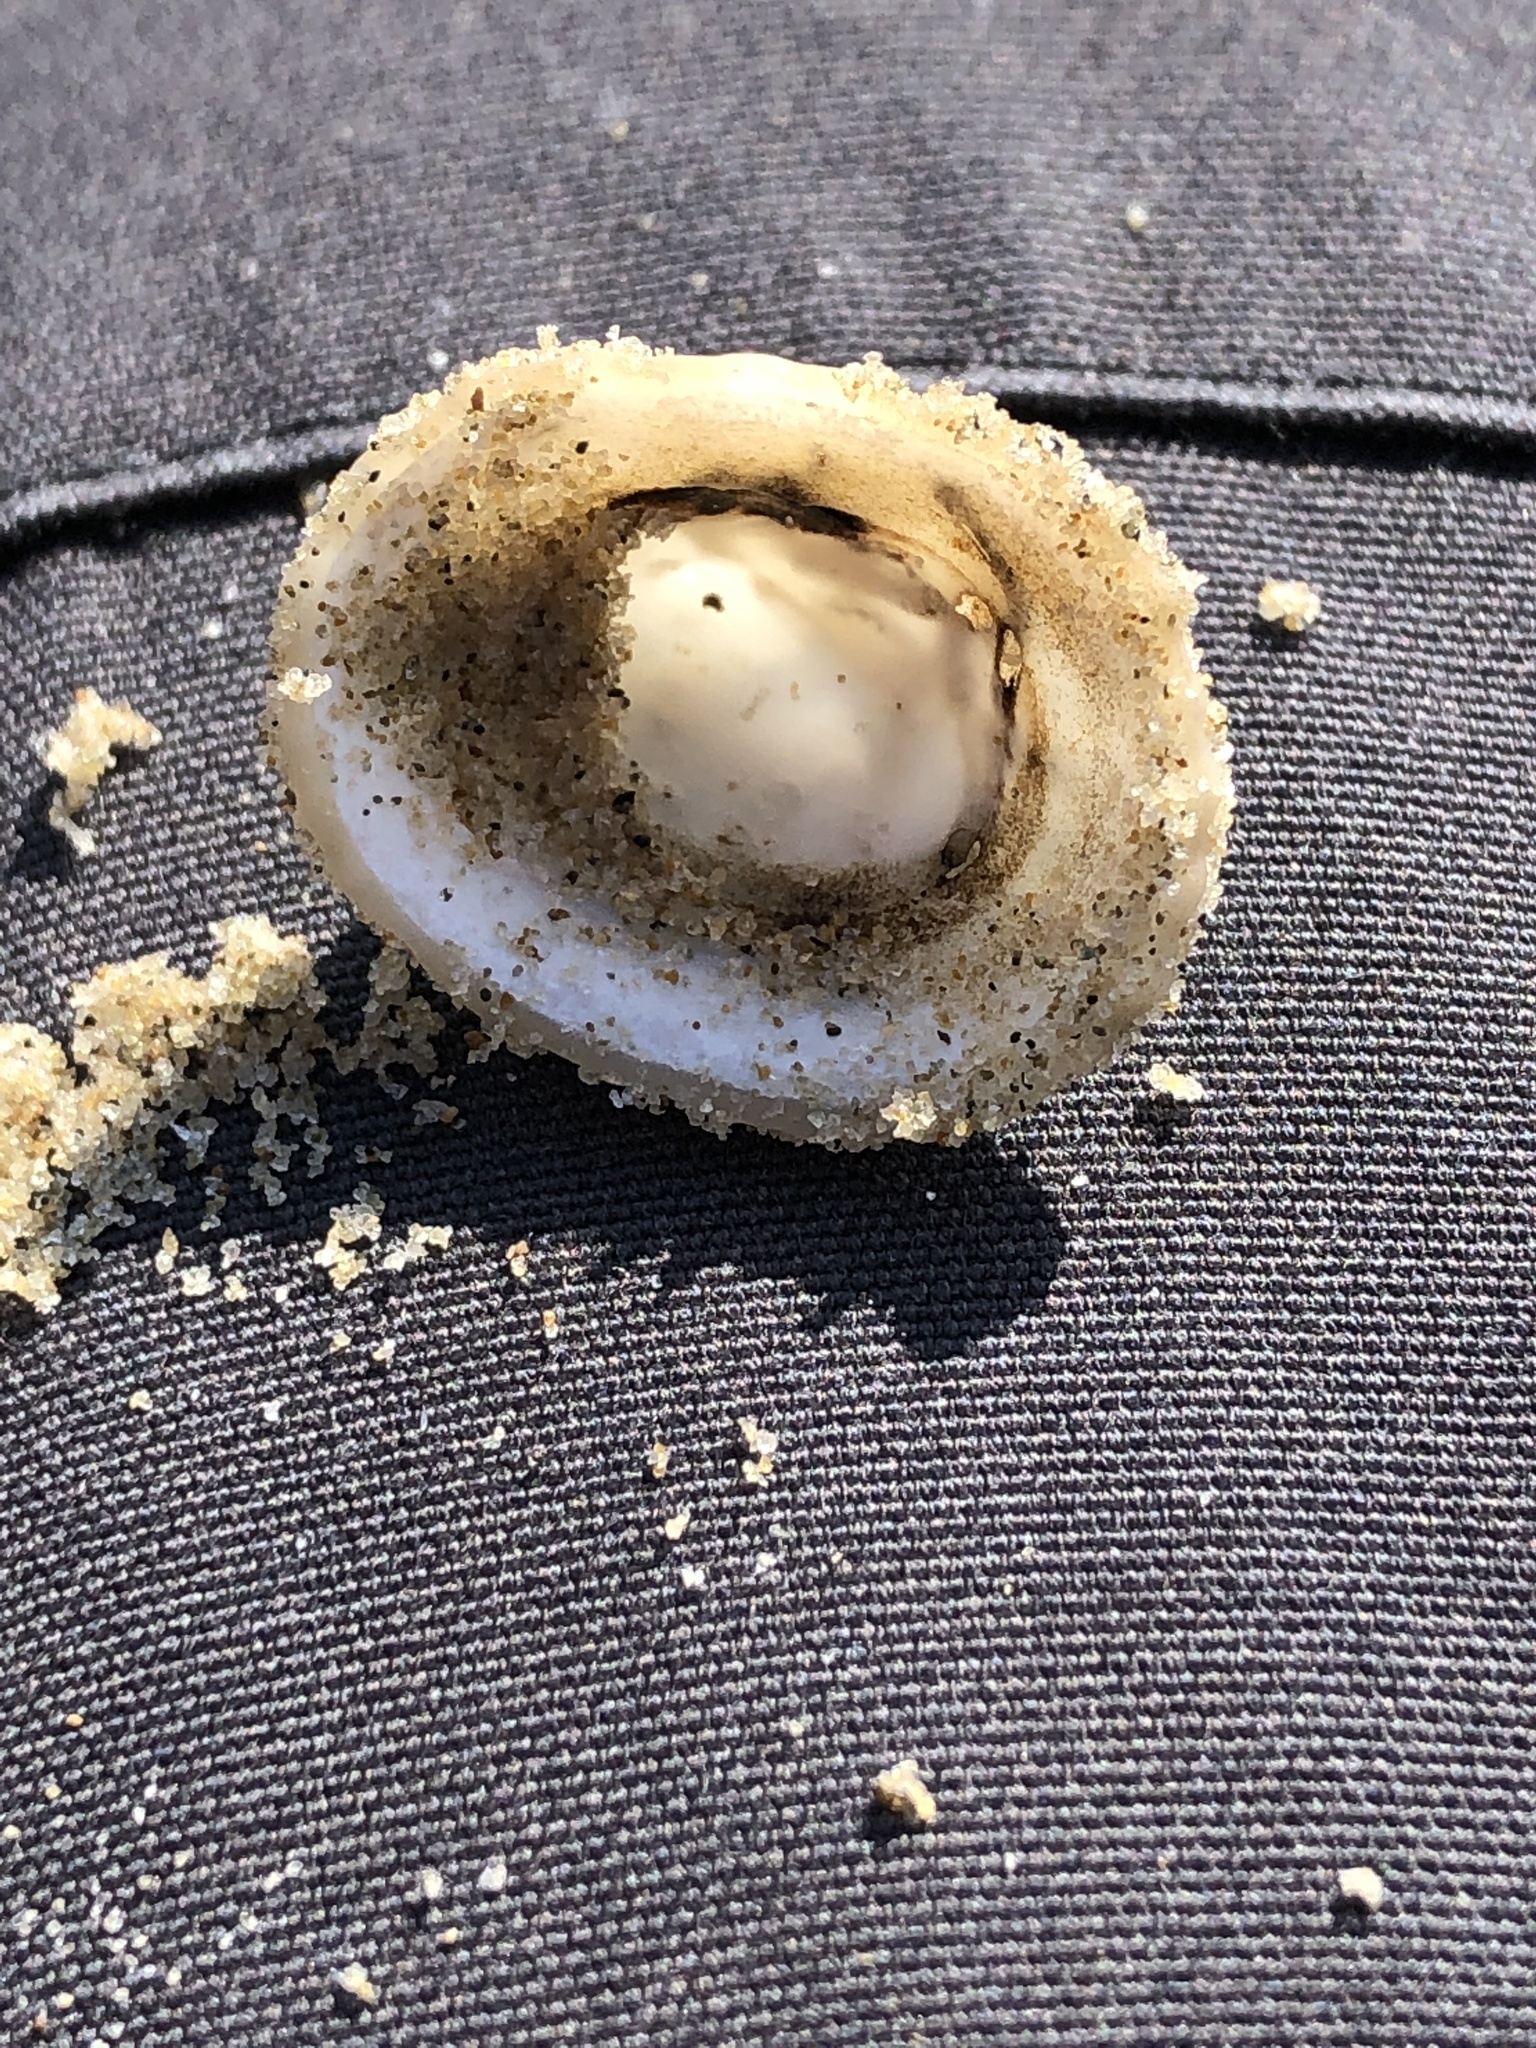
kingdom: Animalia
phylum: Mollusca
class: Gastropoda
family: Lottiidae
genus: Niveotectura
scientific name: Niveotectura pallida
